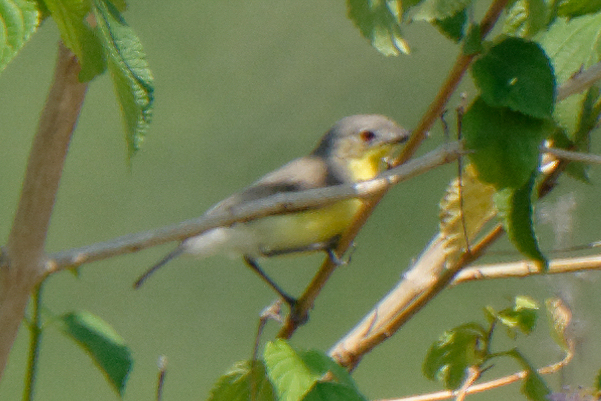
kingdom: Animalia
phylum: Chordata
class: Aves
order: Passeriformes
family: Acanthizidae
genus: Gerygone
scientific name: Gerygone sulphurea
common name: Golden-bellied gerygone
